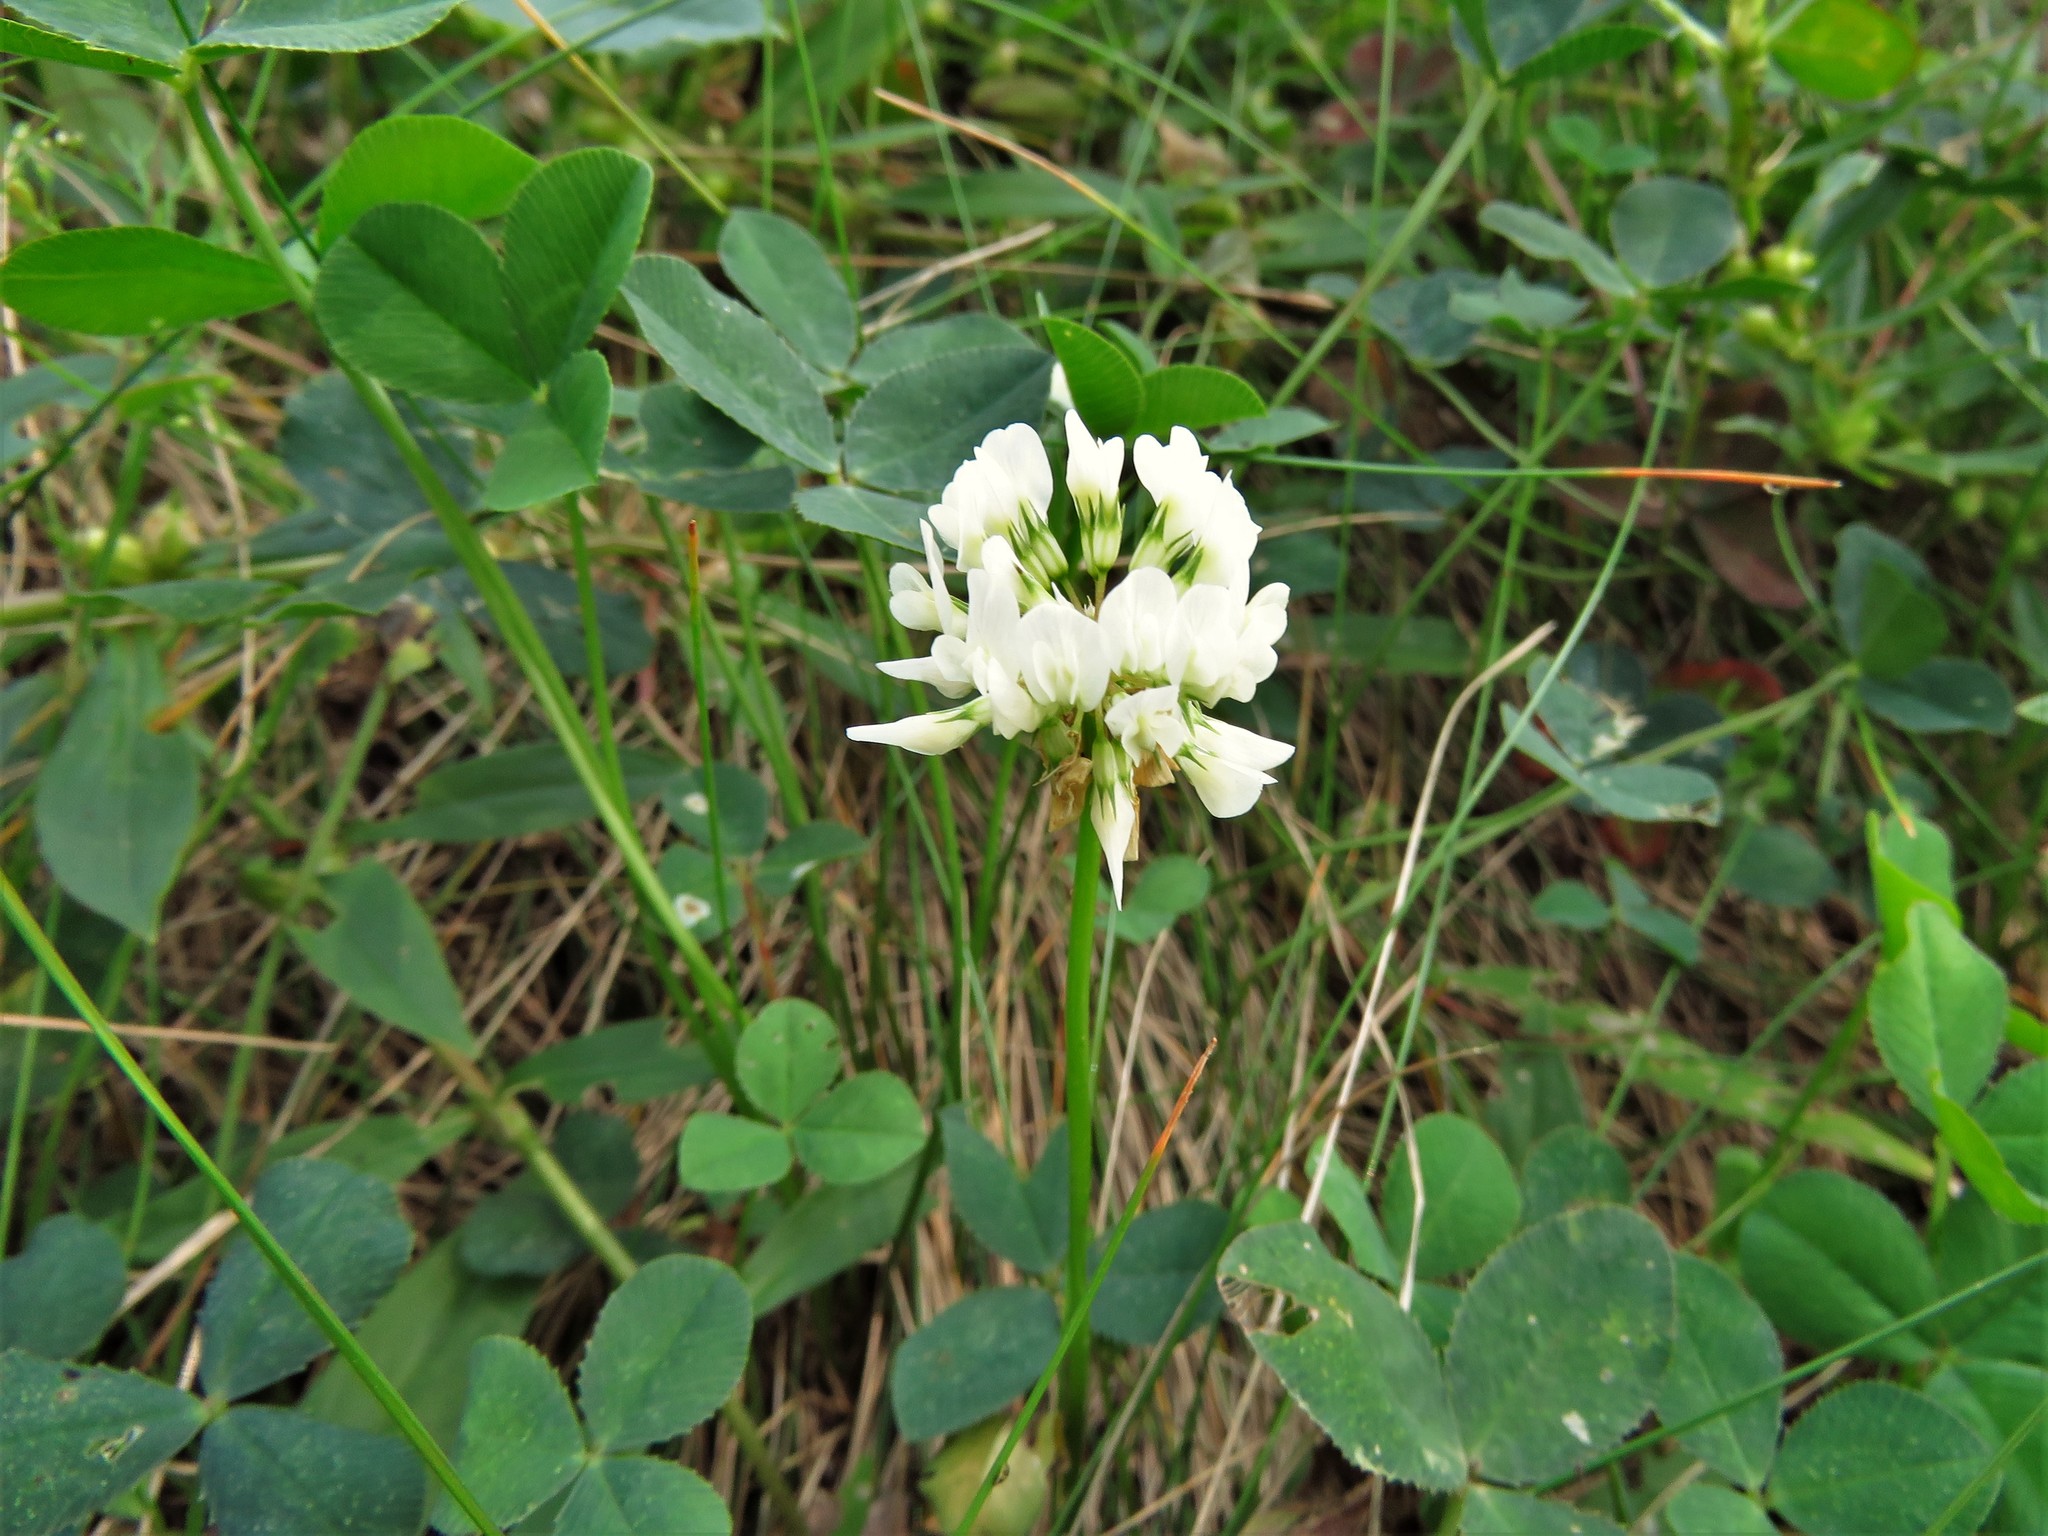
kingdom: Plantae
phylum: Tracheophyta
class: Magnoliopsida
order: Fabales
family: Fabaceae
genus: Trifolium
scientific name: Trifolium repens
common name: White clover
